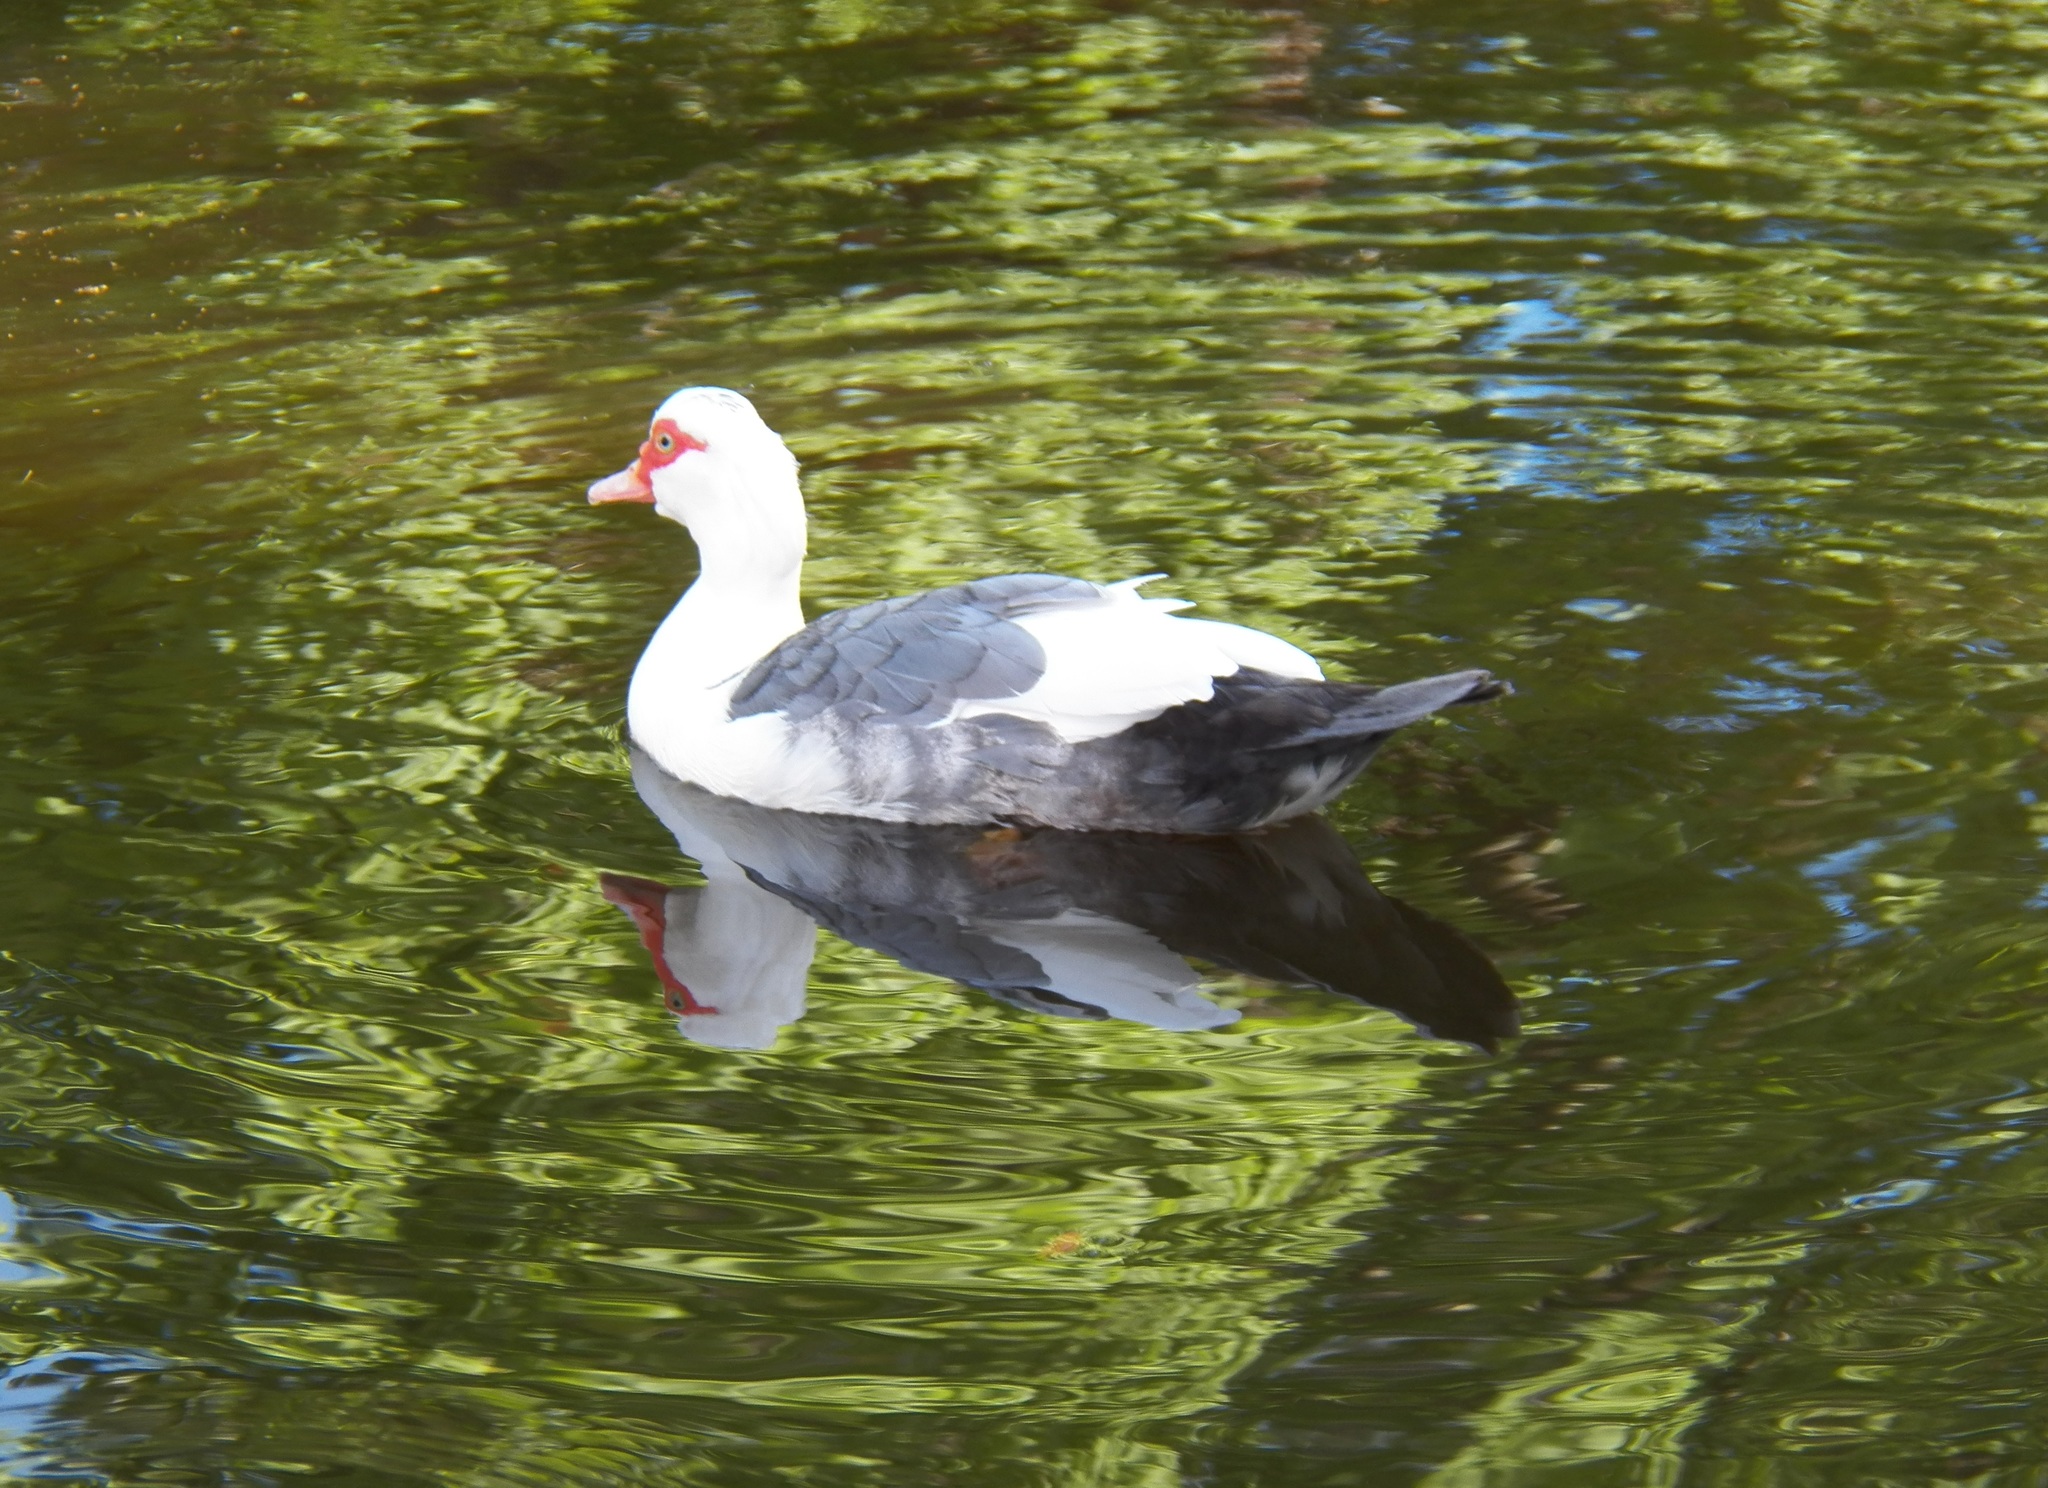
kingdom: Animalia
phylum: Chordata
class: Aves
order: Anseriformes
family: Anatidae
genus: Cairina
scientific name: Cairina moschata
